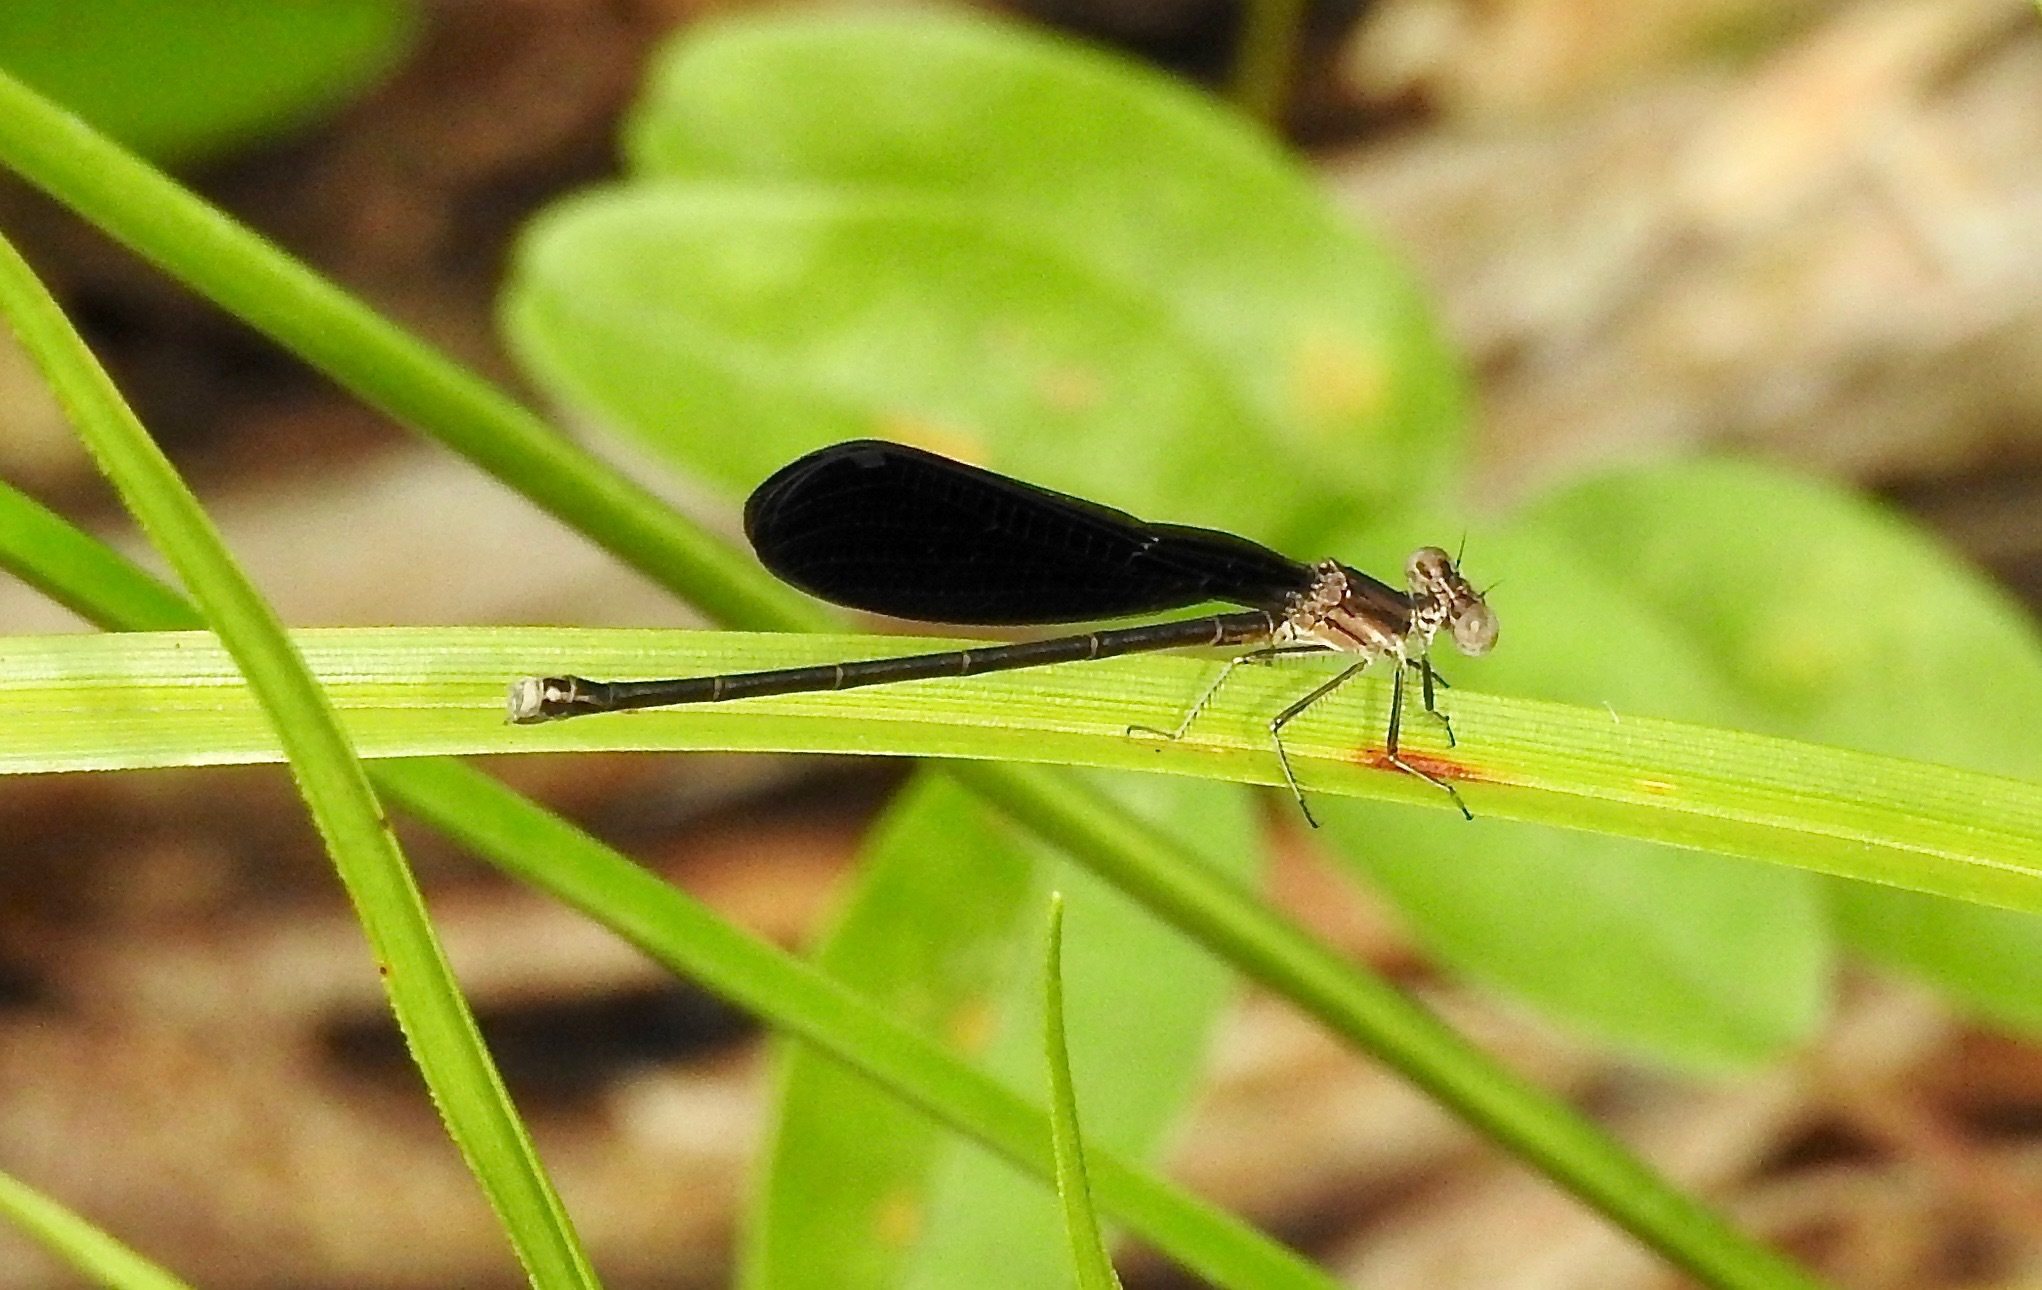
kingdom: Animalia
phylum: Arthropoda
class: Insecta
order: Odonata
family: Coenagrionidae
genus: Argia
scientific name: Argia fumipennis
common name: Variable dancer
